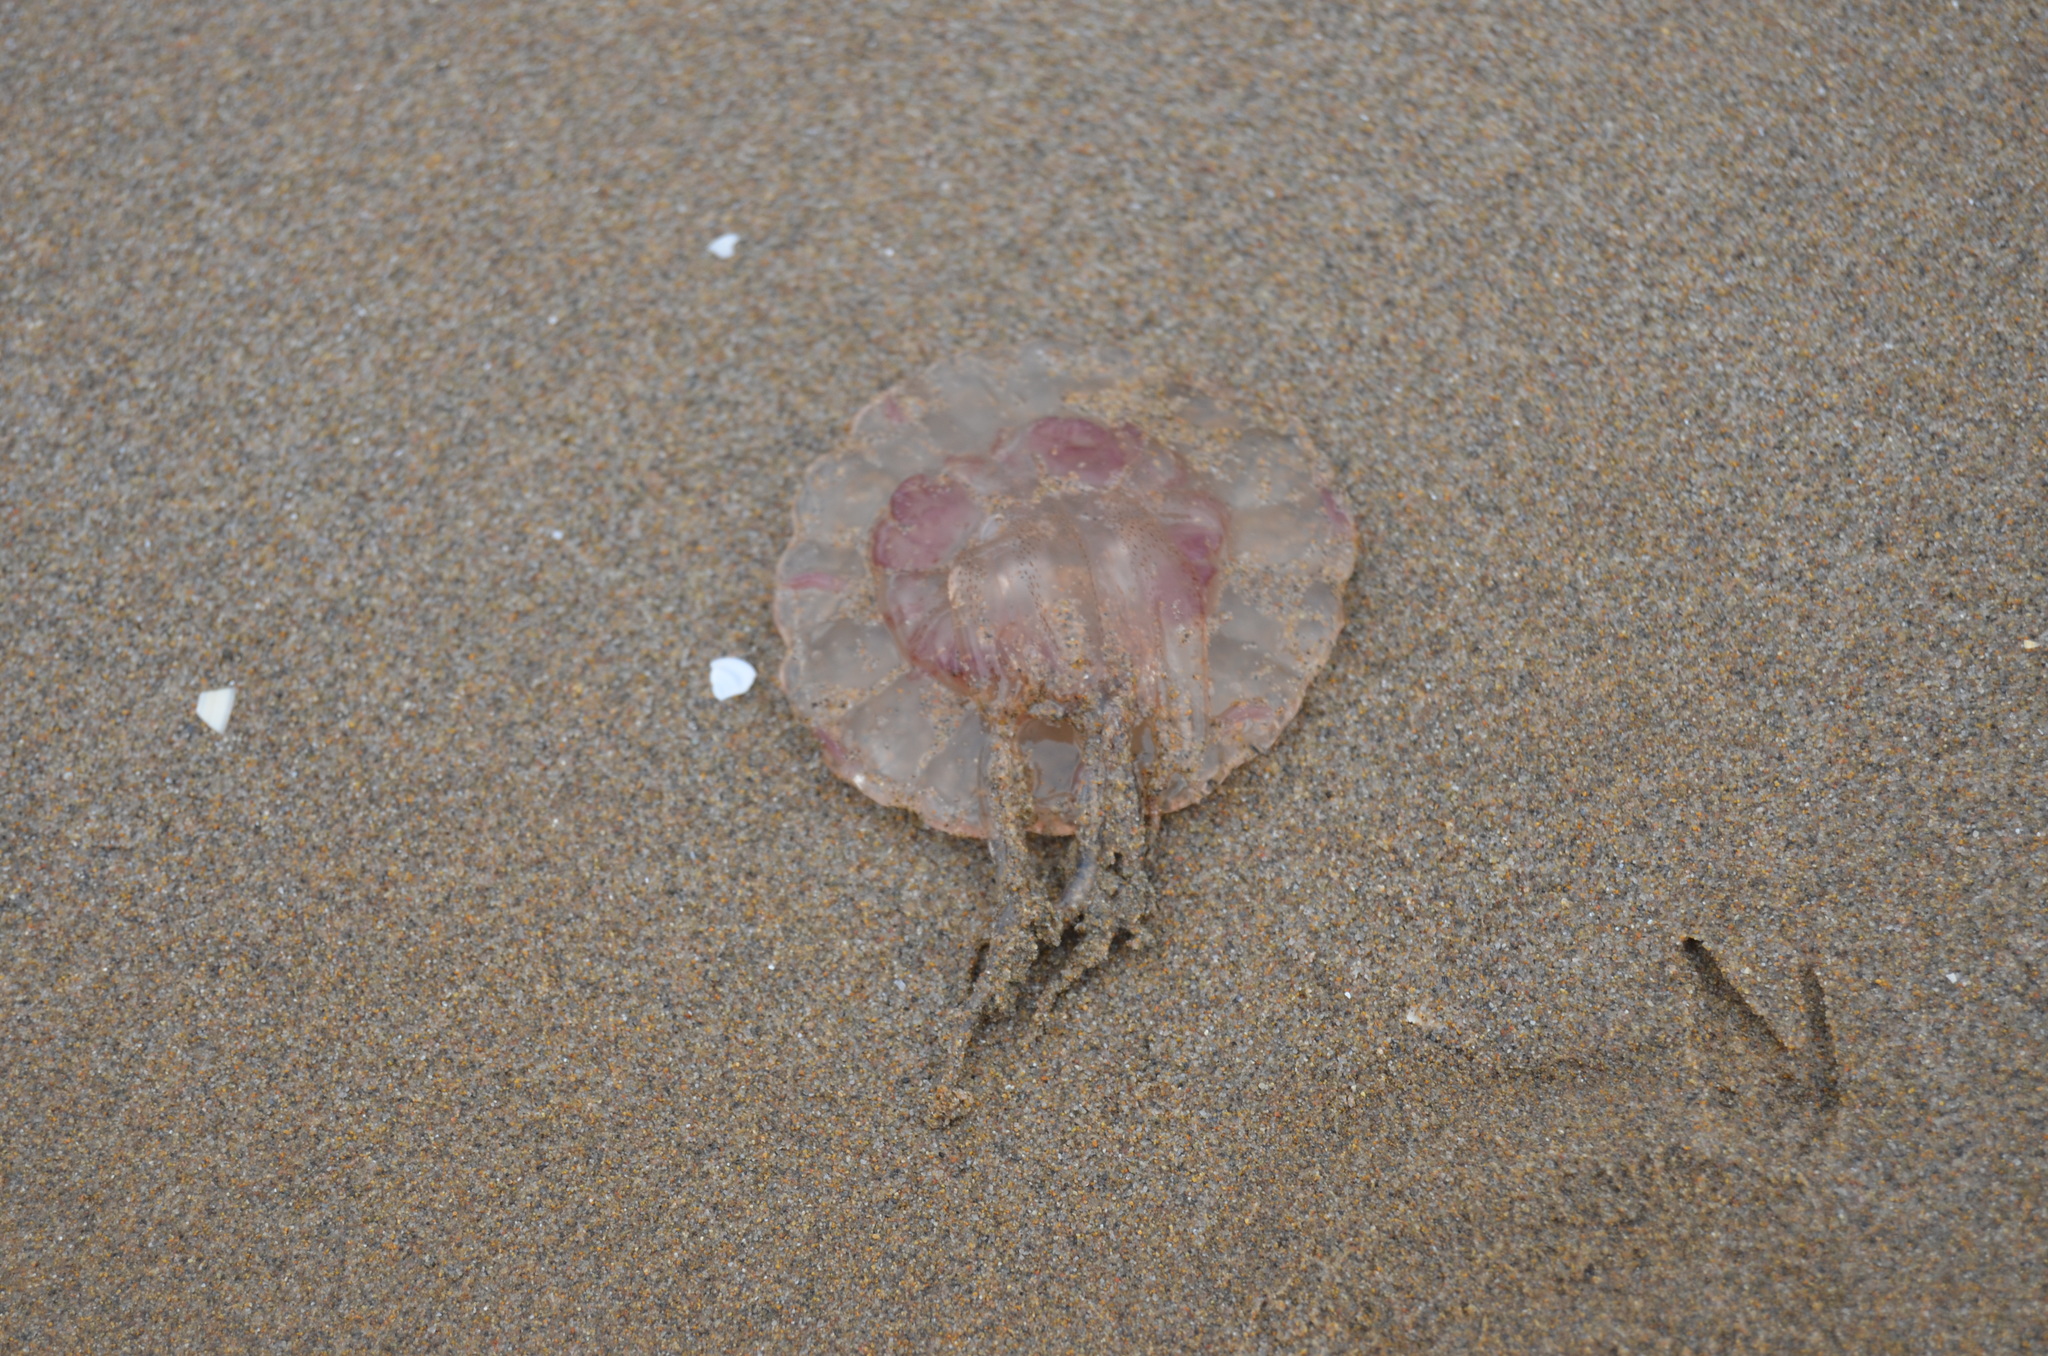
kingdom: Animalia
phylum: Cnidaria
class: Scyphozoa
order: Semaeostomeae
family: Pelagiidae
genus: Pelagia
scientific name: Pelagia noctiluca
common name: Mauve stinger
